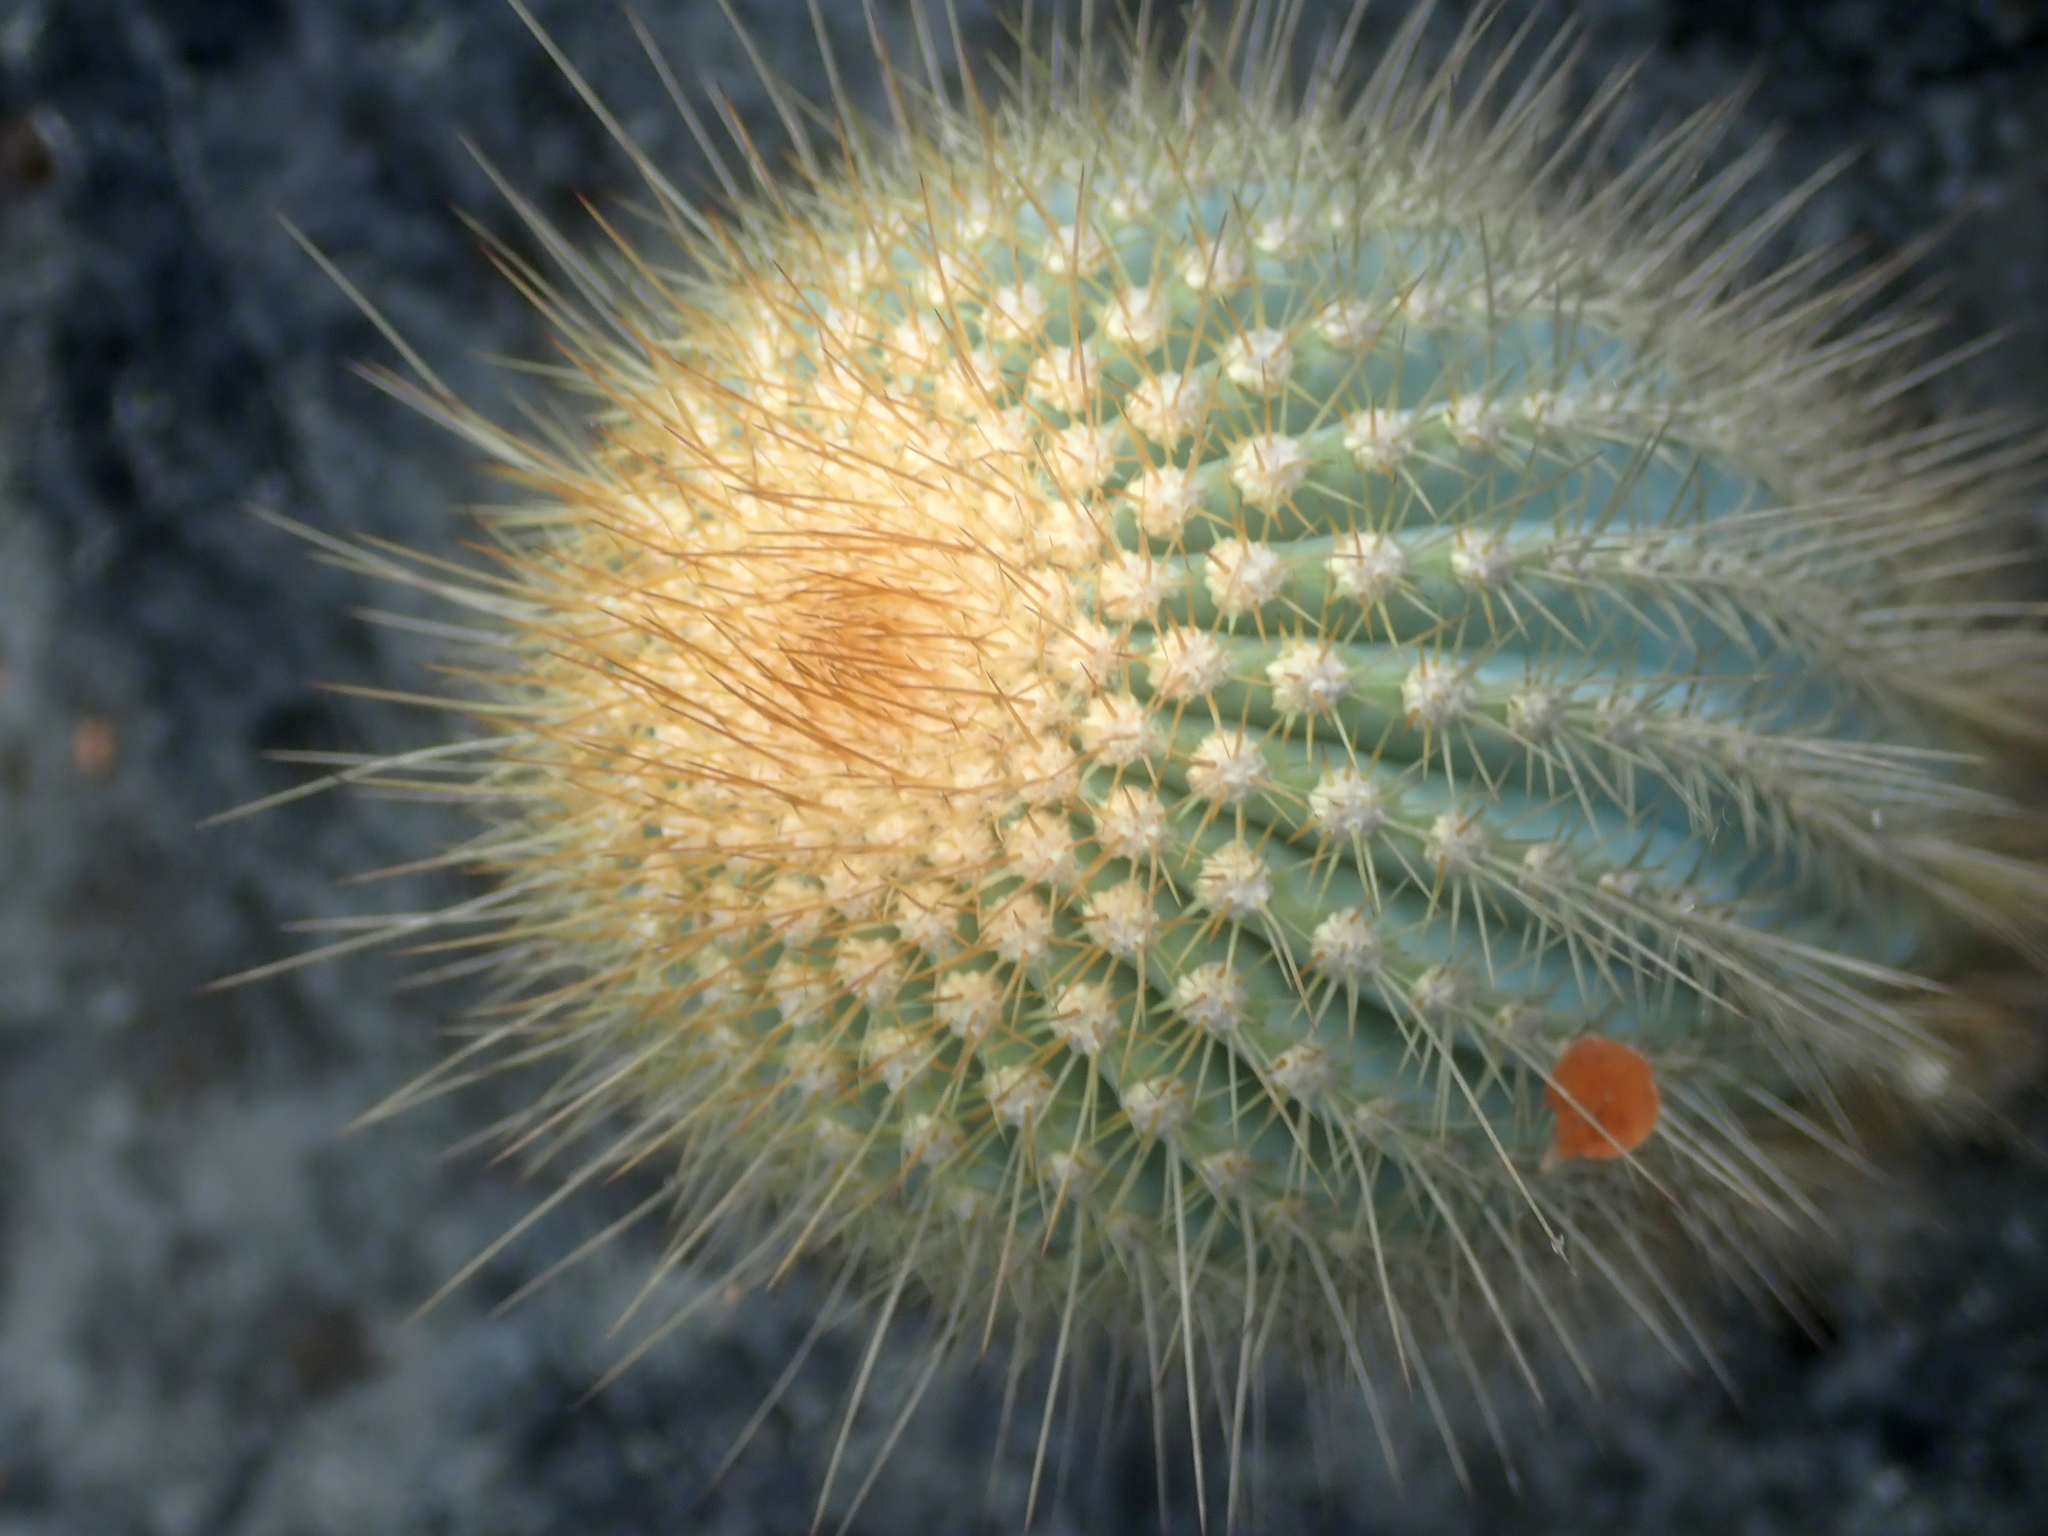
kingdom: Plantae
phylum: Tracheophyta
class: Magnoliopsida
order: Caryophyllales
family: Cactaceae
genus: Coleocephalocereus
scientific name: Coleocephalocereus
